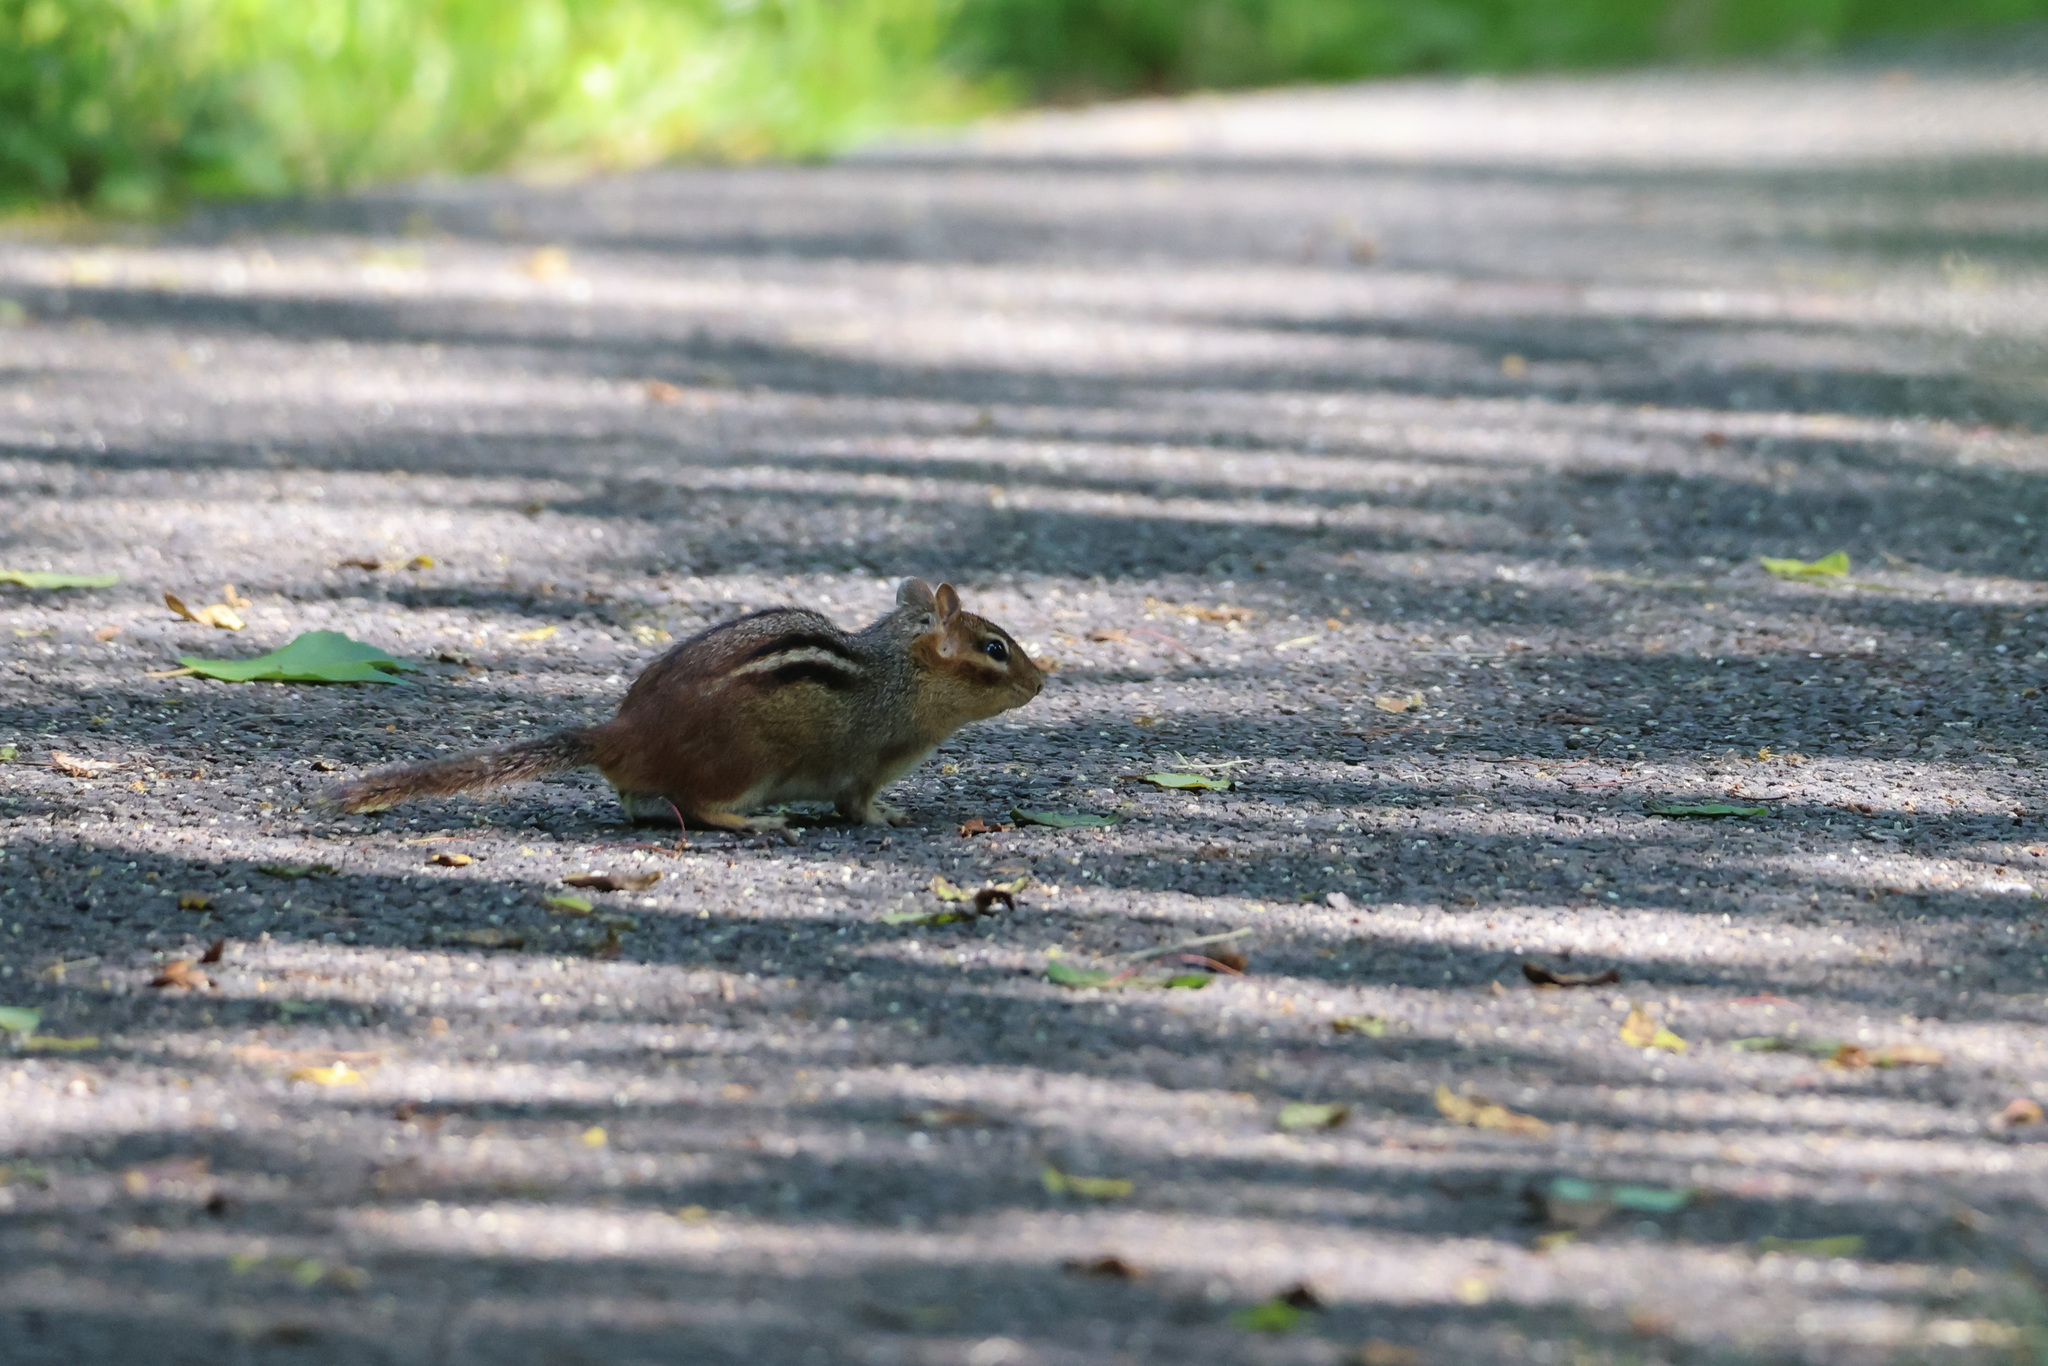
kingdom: Animalia
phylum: Chordata
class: Mammalia
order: Rodentia
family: Sciuridae
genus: Tamias
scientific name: Tamias striatus
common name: Eastern chipmunk
